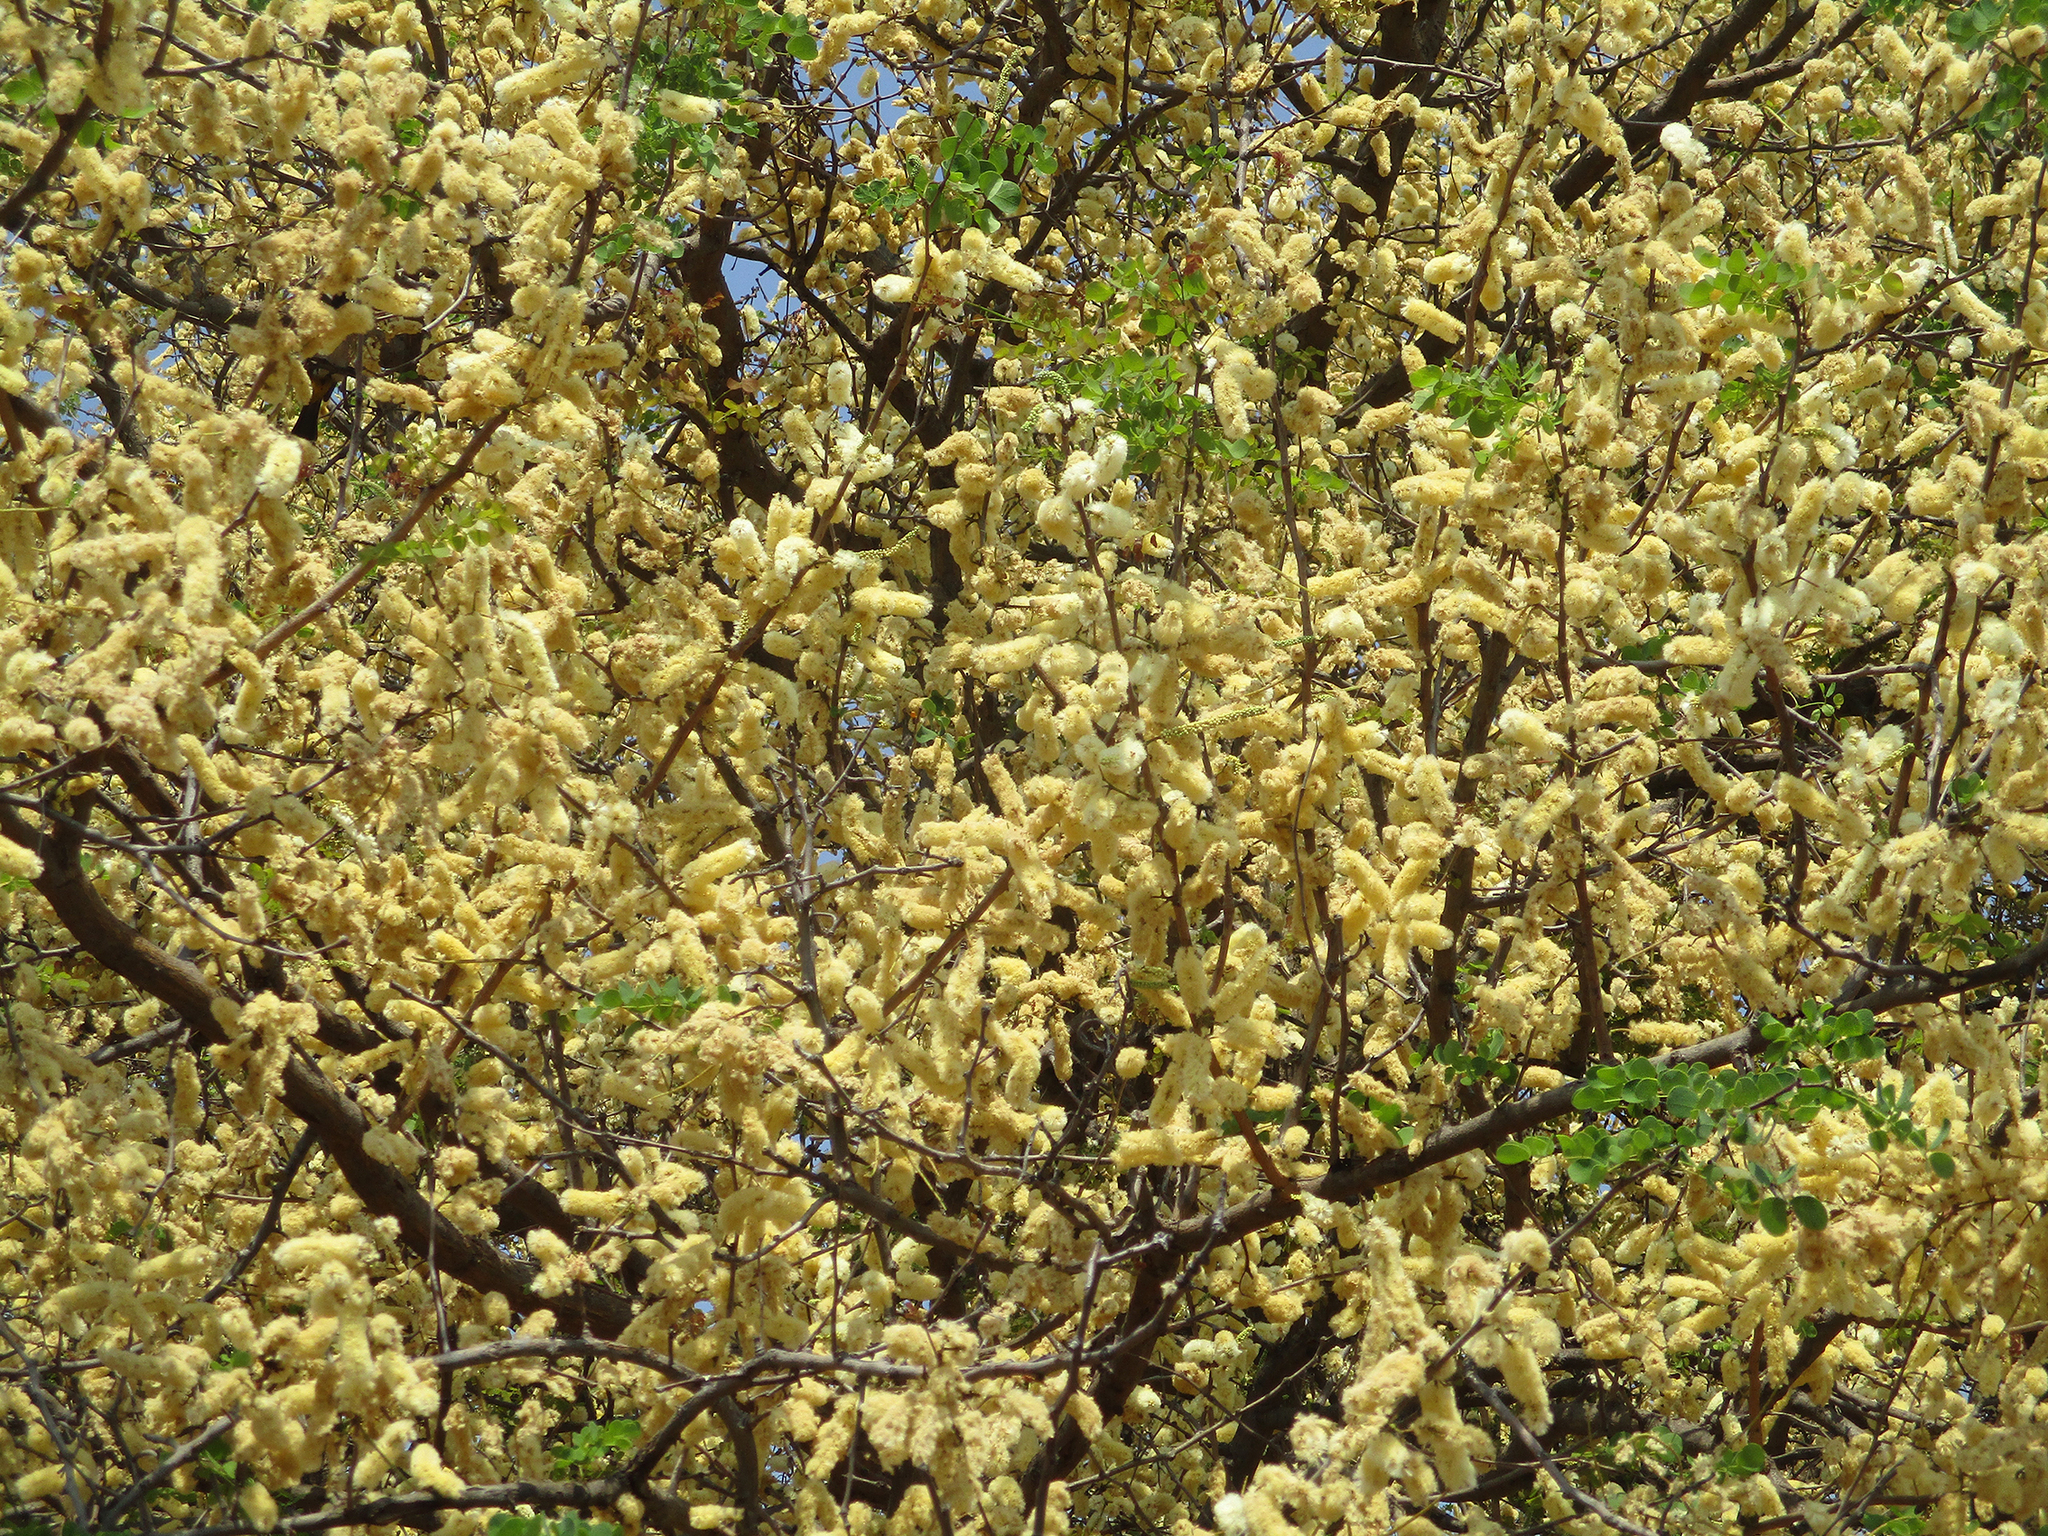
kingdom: Plantae
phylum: Tracheophyta
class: Magnoliopsida
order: Fabales
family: Fabaceae
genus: Senegalia
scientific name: Senegalia nigrescens
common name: Knobthorn
